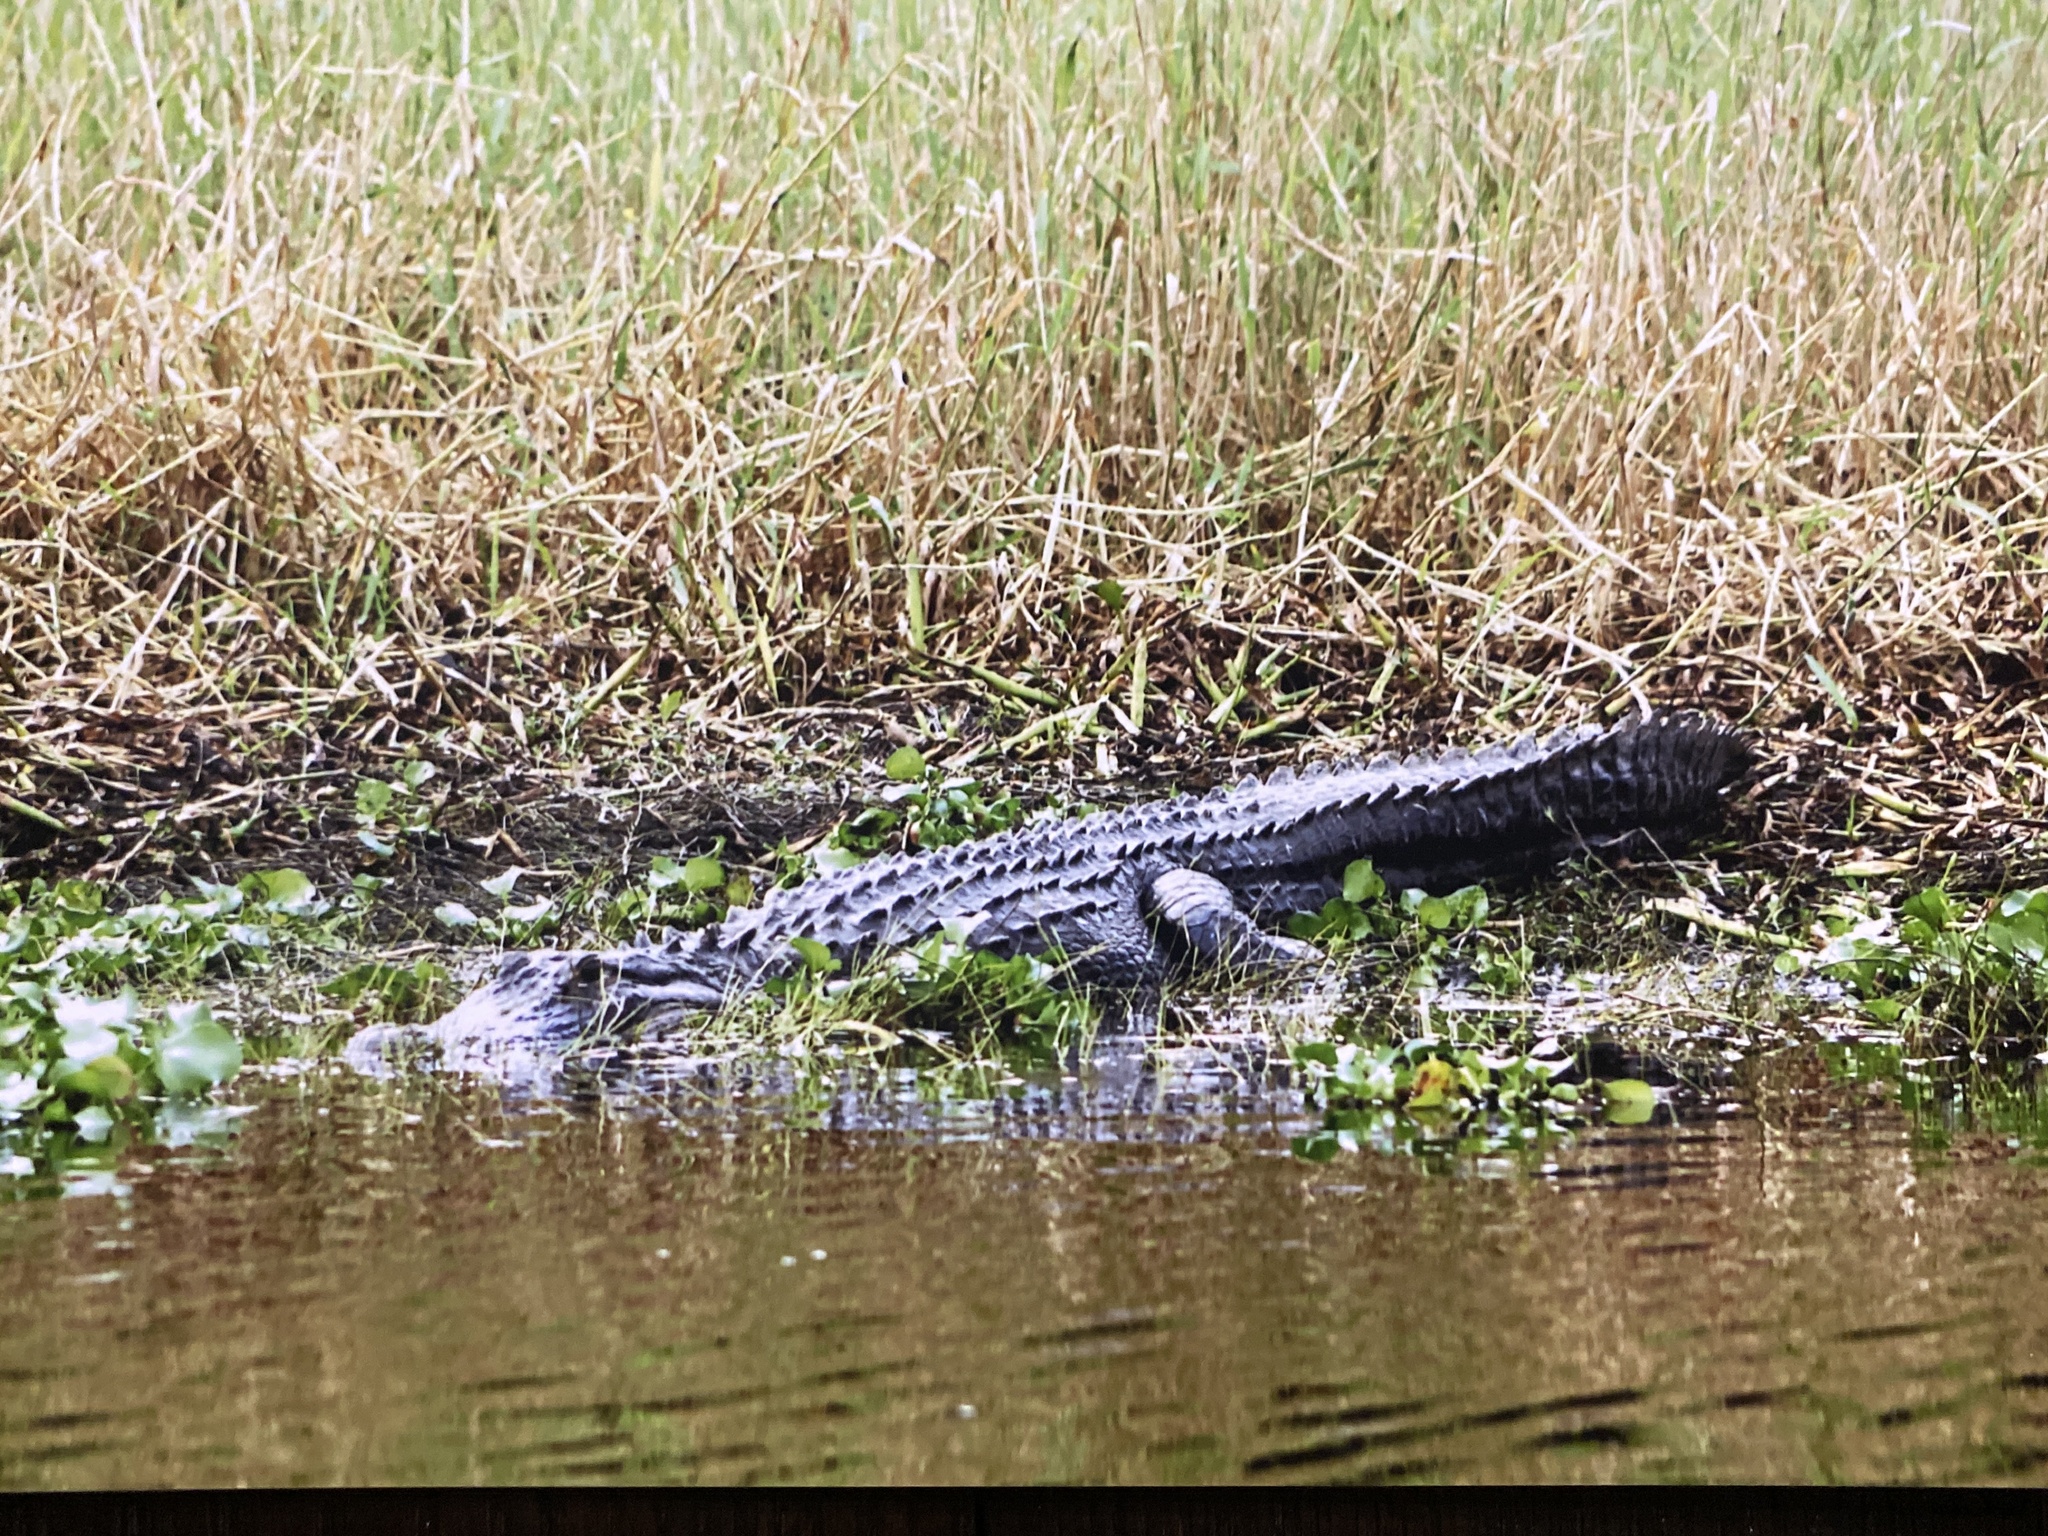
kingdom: Animalia
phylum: Chordata
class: Crocodylia
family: Alligatoridae
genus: Alligator
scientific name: Alligator mississippiensis
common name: American alligator
